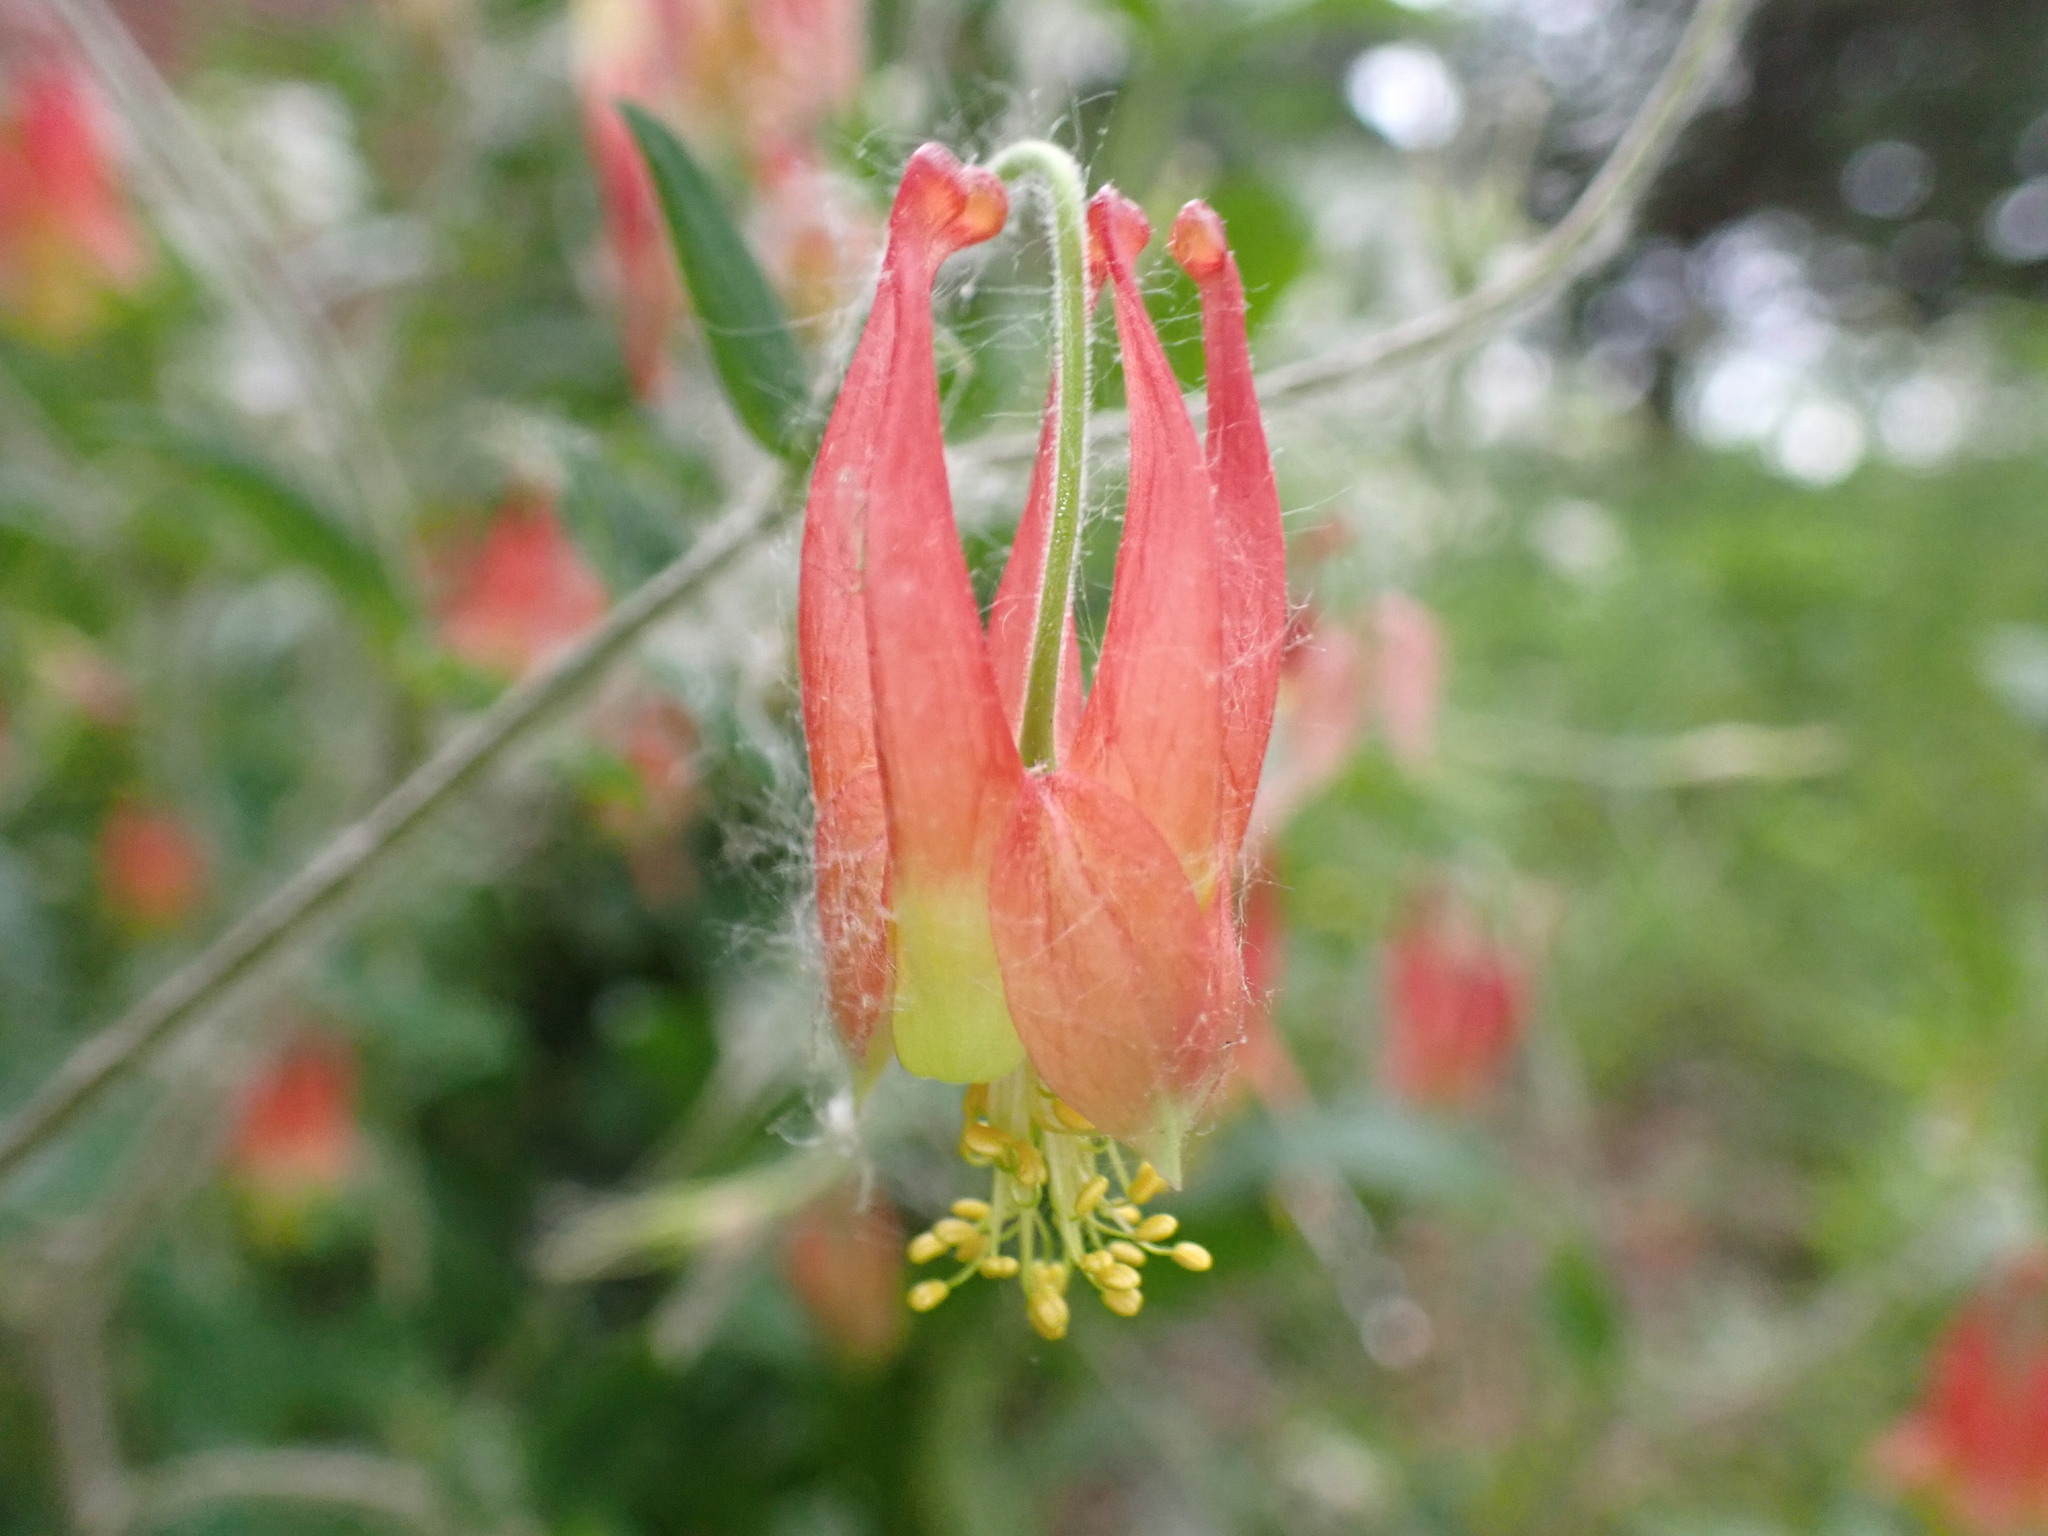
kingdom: Plantae
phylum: Tracheophyta
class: Magnoliopsida
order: Ranunculales
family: Ranunculaceae
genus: Aquilegia
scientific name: Aquilegia canadensis
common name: American columbine
